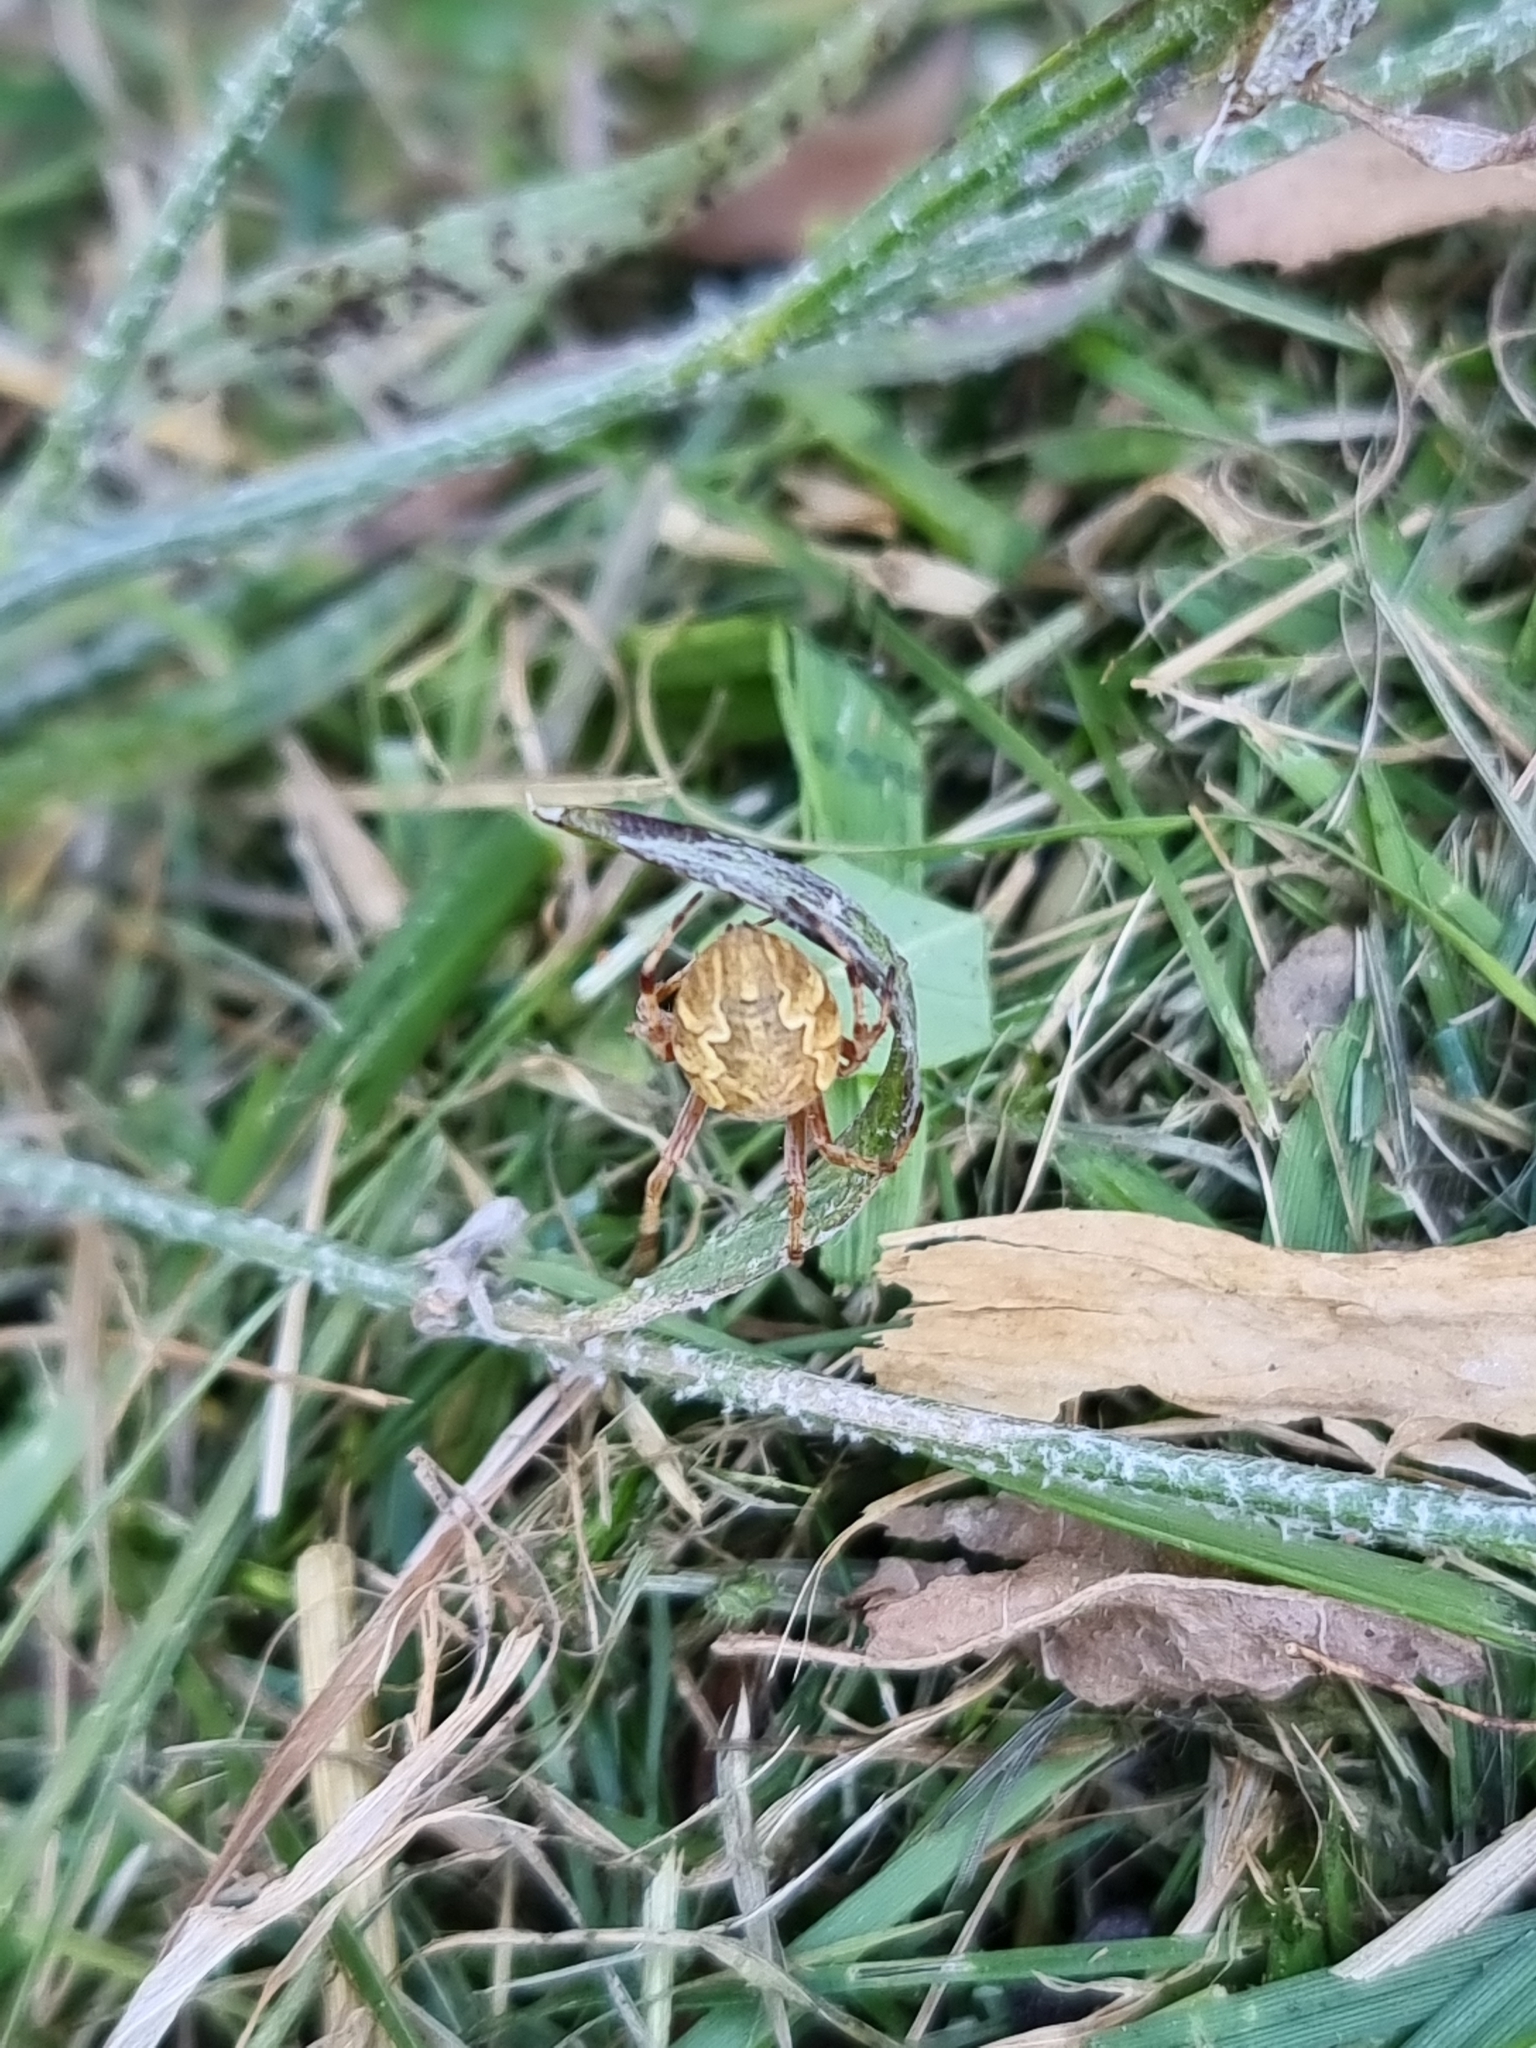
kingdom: Animalia
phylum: Arthropoda
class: Arachnida
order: Araneae
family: Araneidae
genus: Salsa
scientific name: Salsa fuliginata
